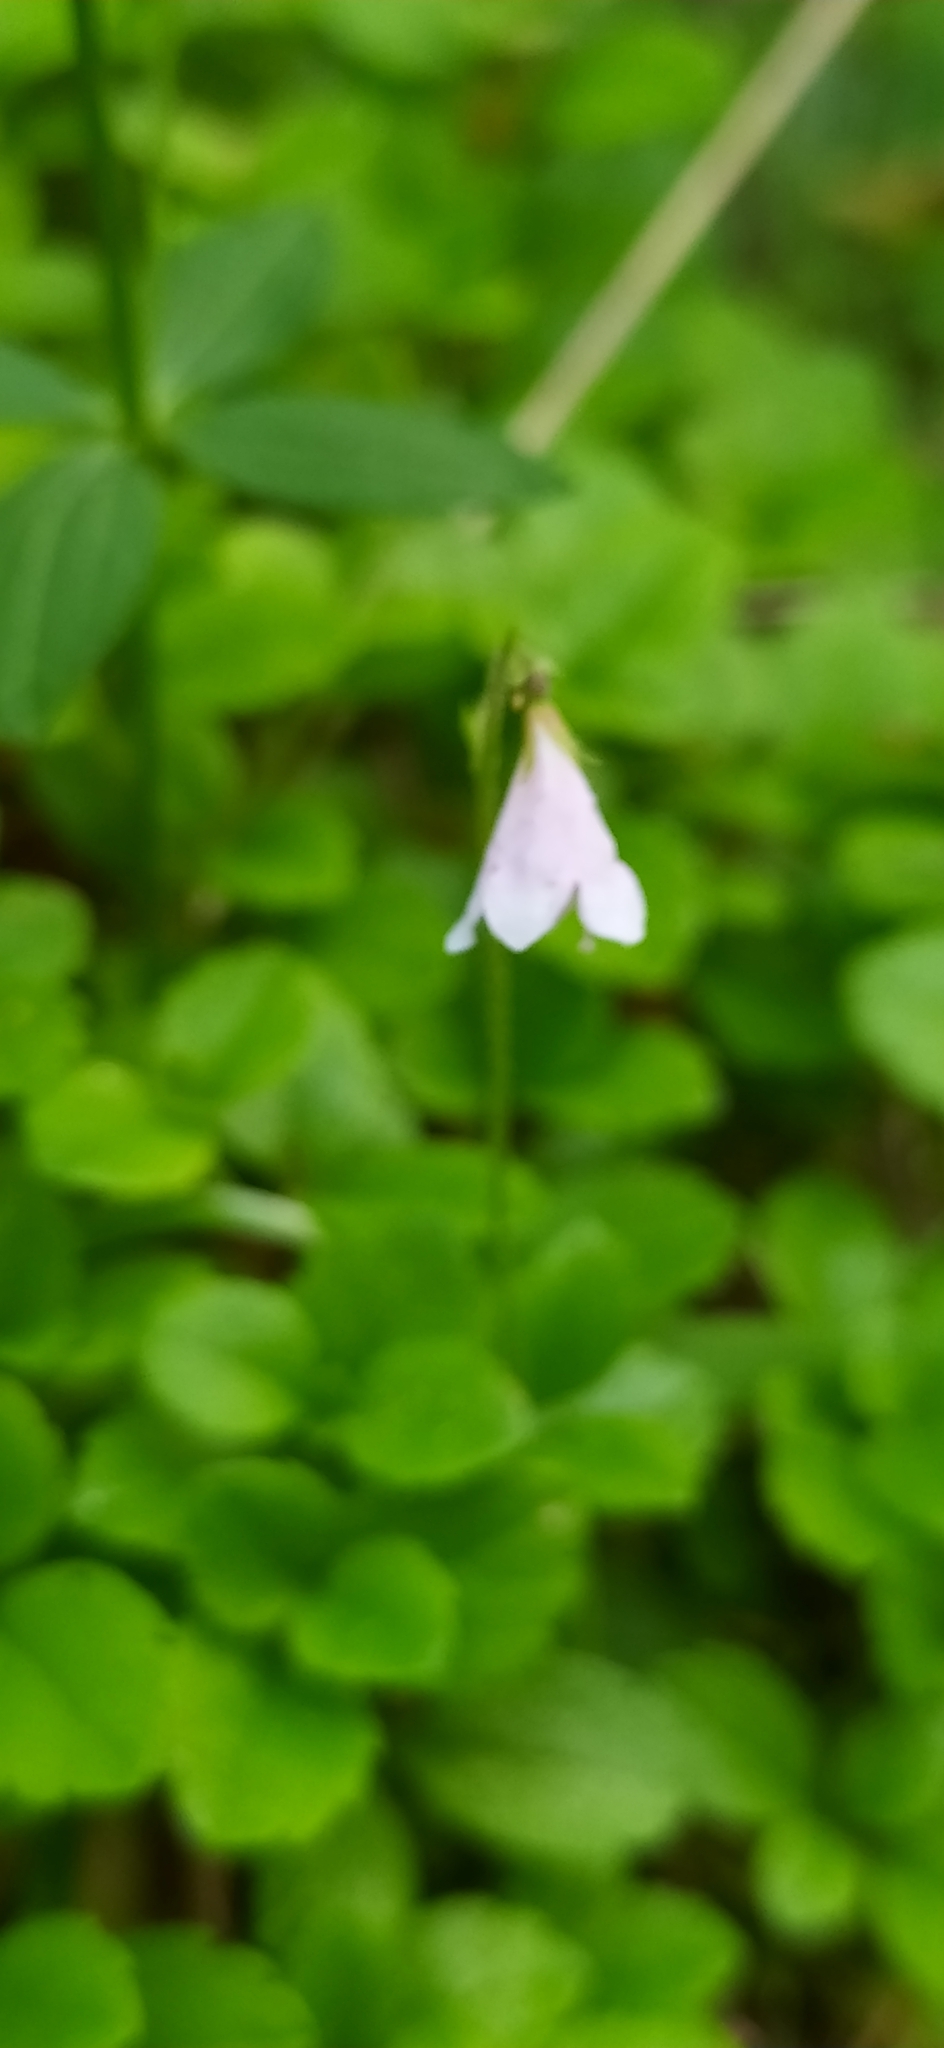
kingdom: Plantae
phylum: Tracheophyta
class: Magnoliopsida
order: Dipsacales
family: Caprifoliaceae
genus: Linnaea
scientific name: Linnaea borealis
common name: Twinflower
